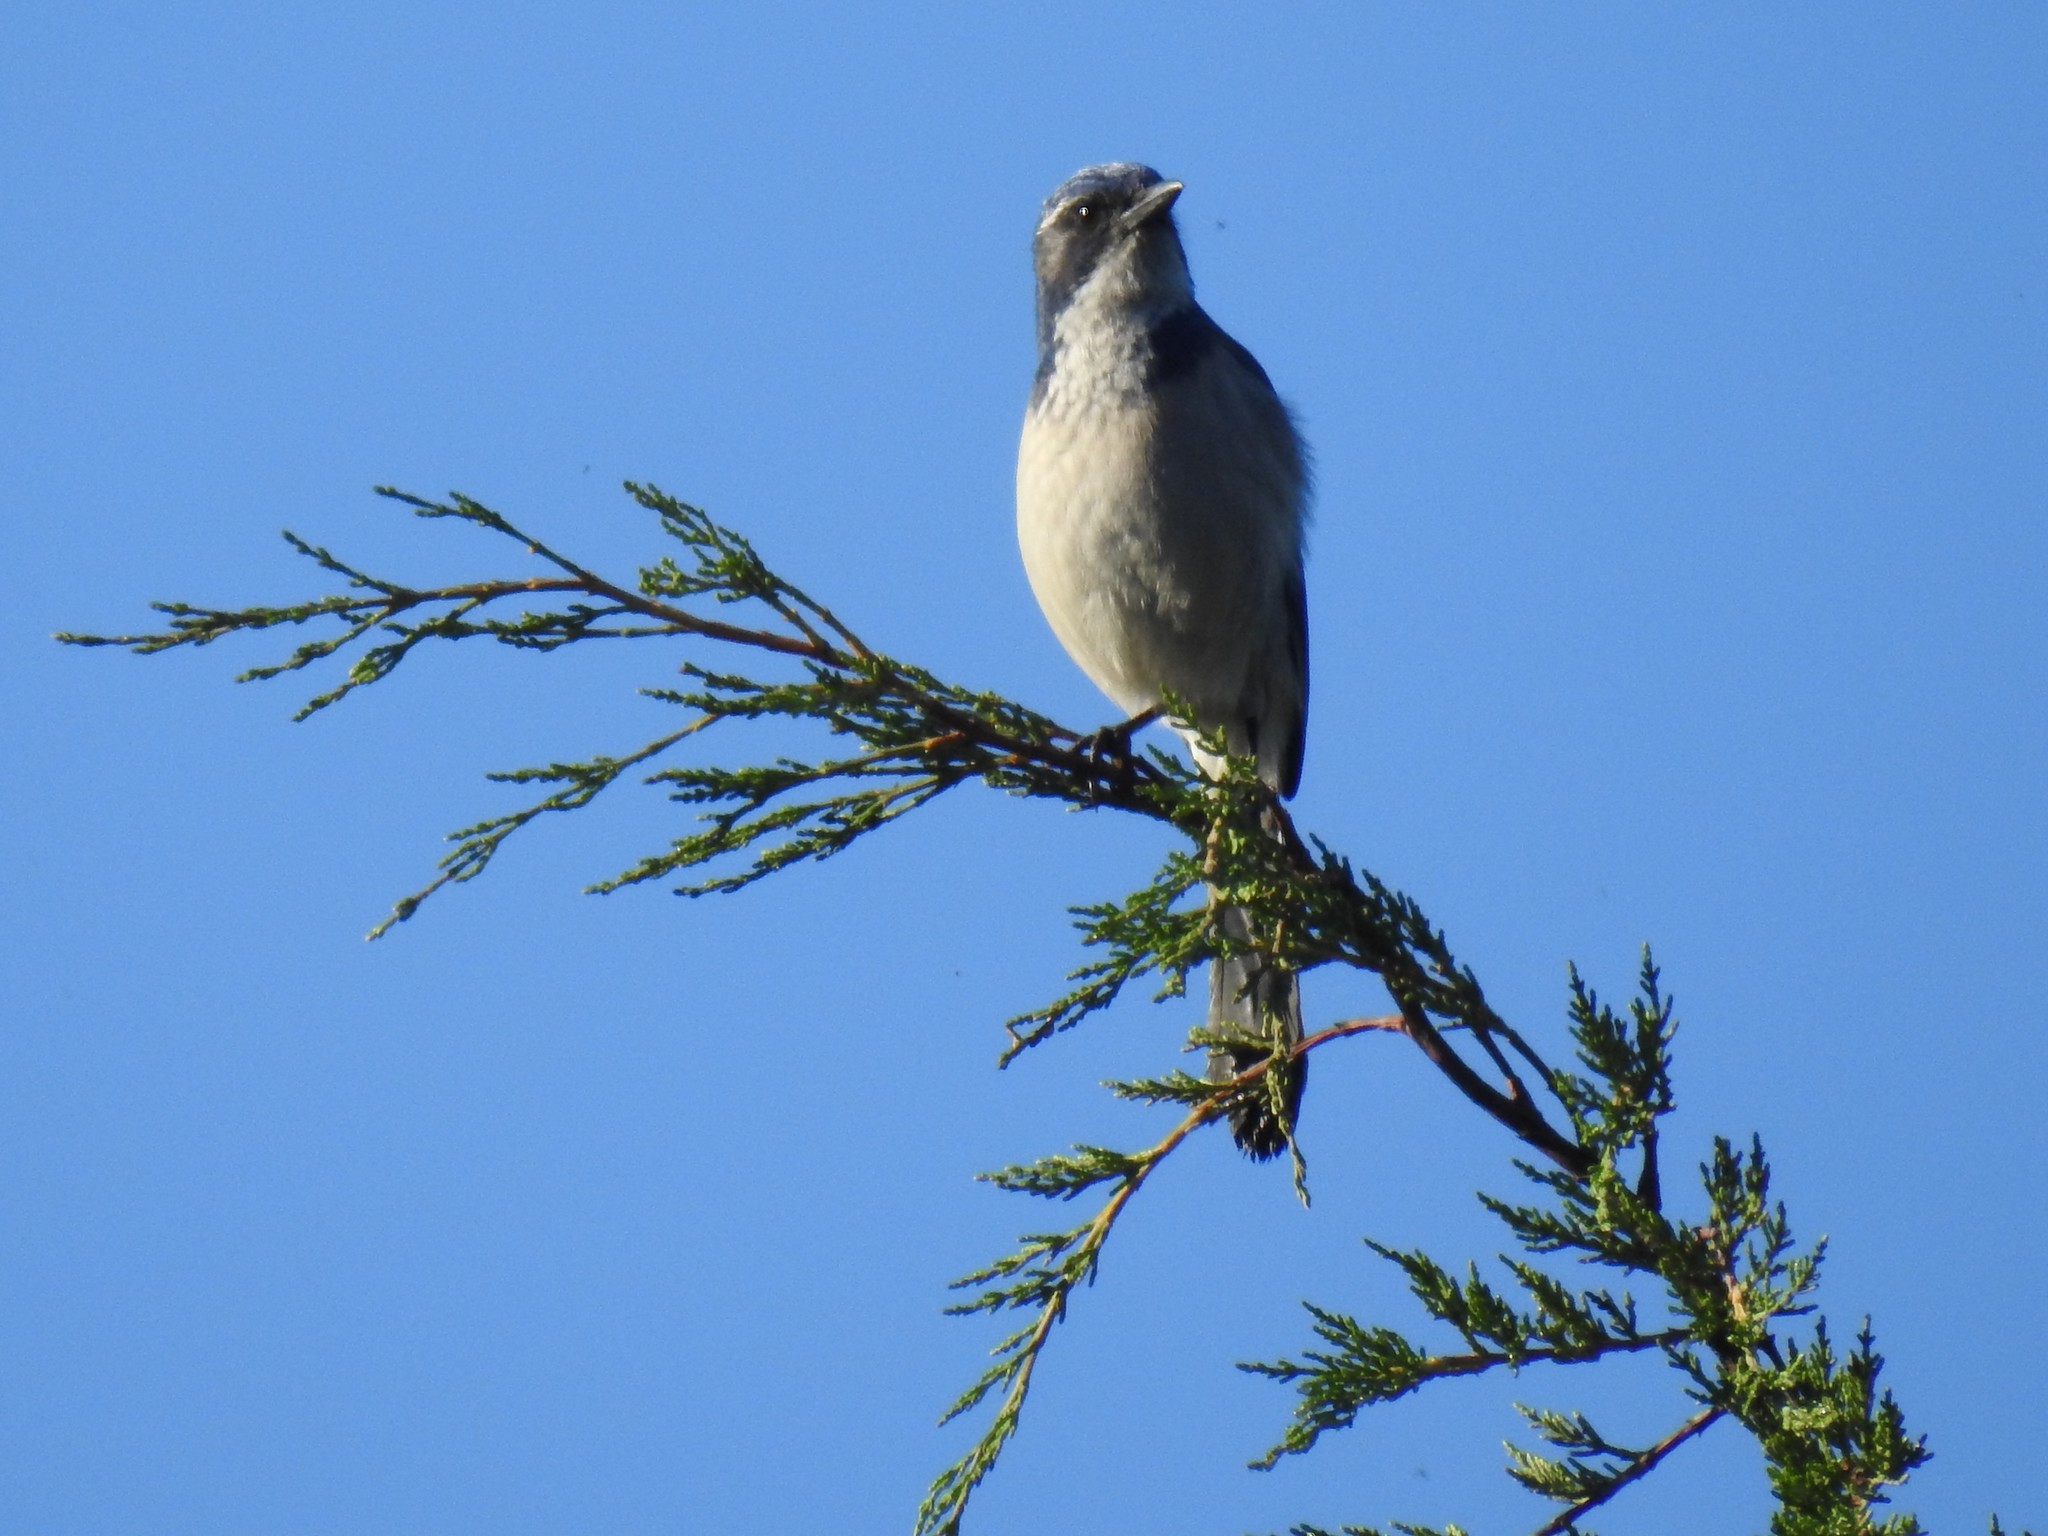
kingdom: Animalia
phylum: Chordata
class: Aves
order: Passeriformes
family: Corvidae
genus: Aphelocoma
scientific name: Aphelocoma californica
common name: California scrub-jay
